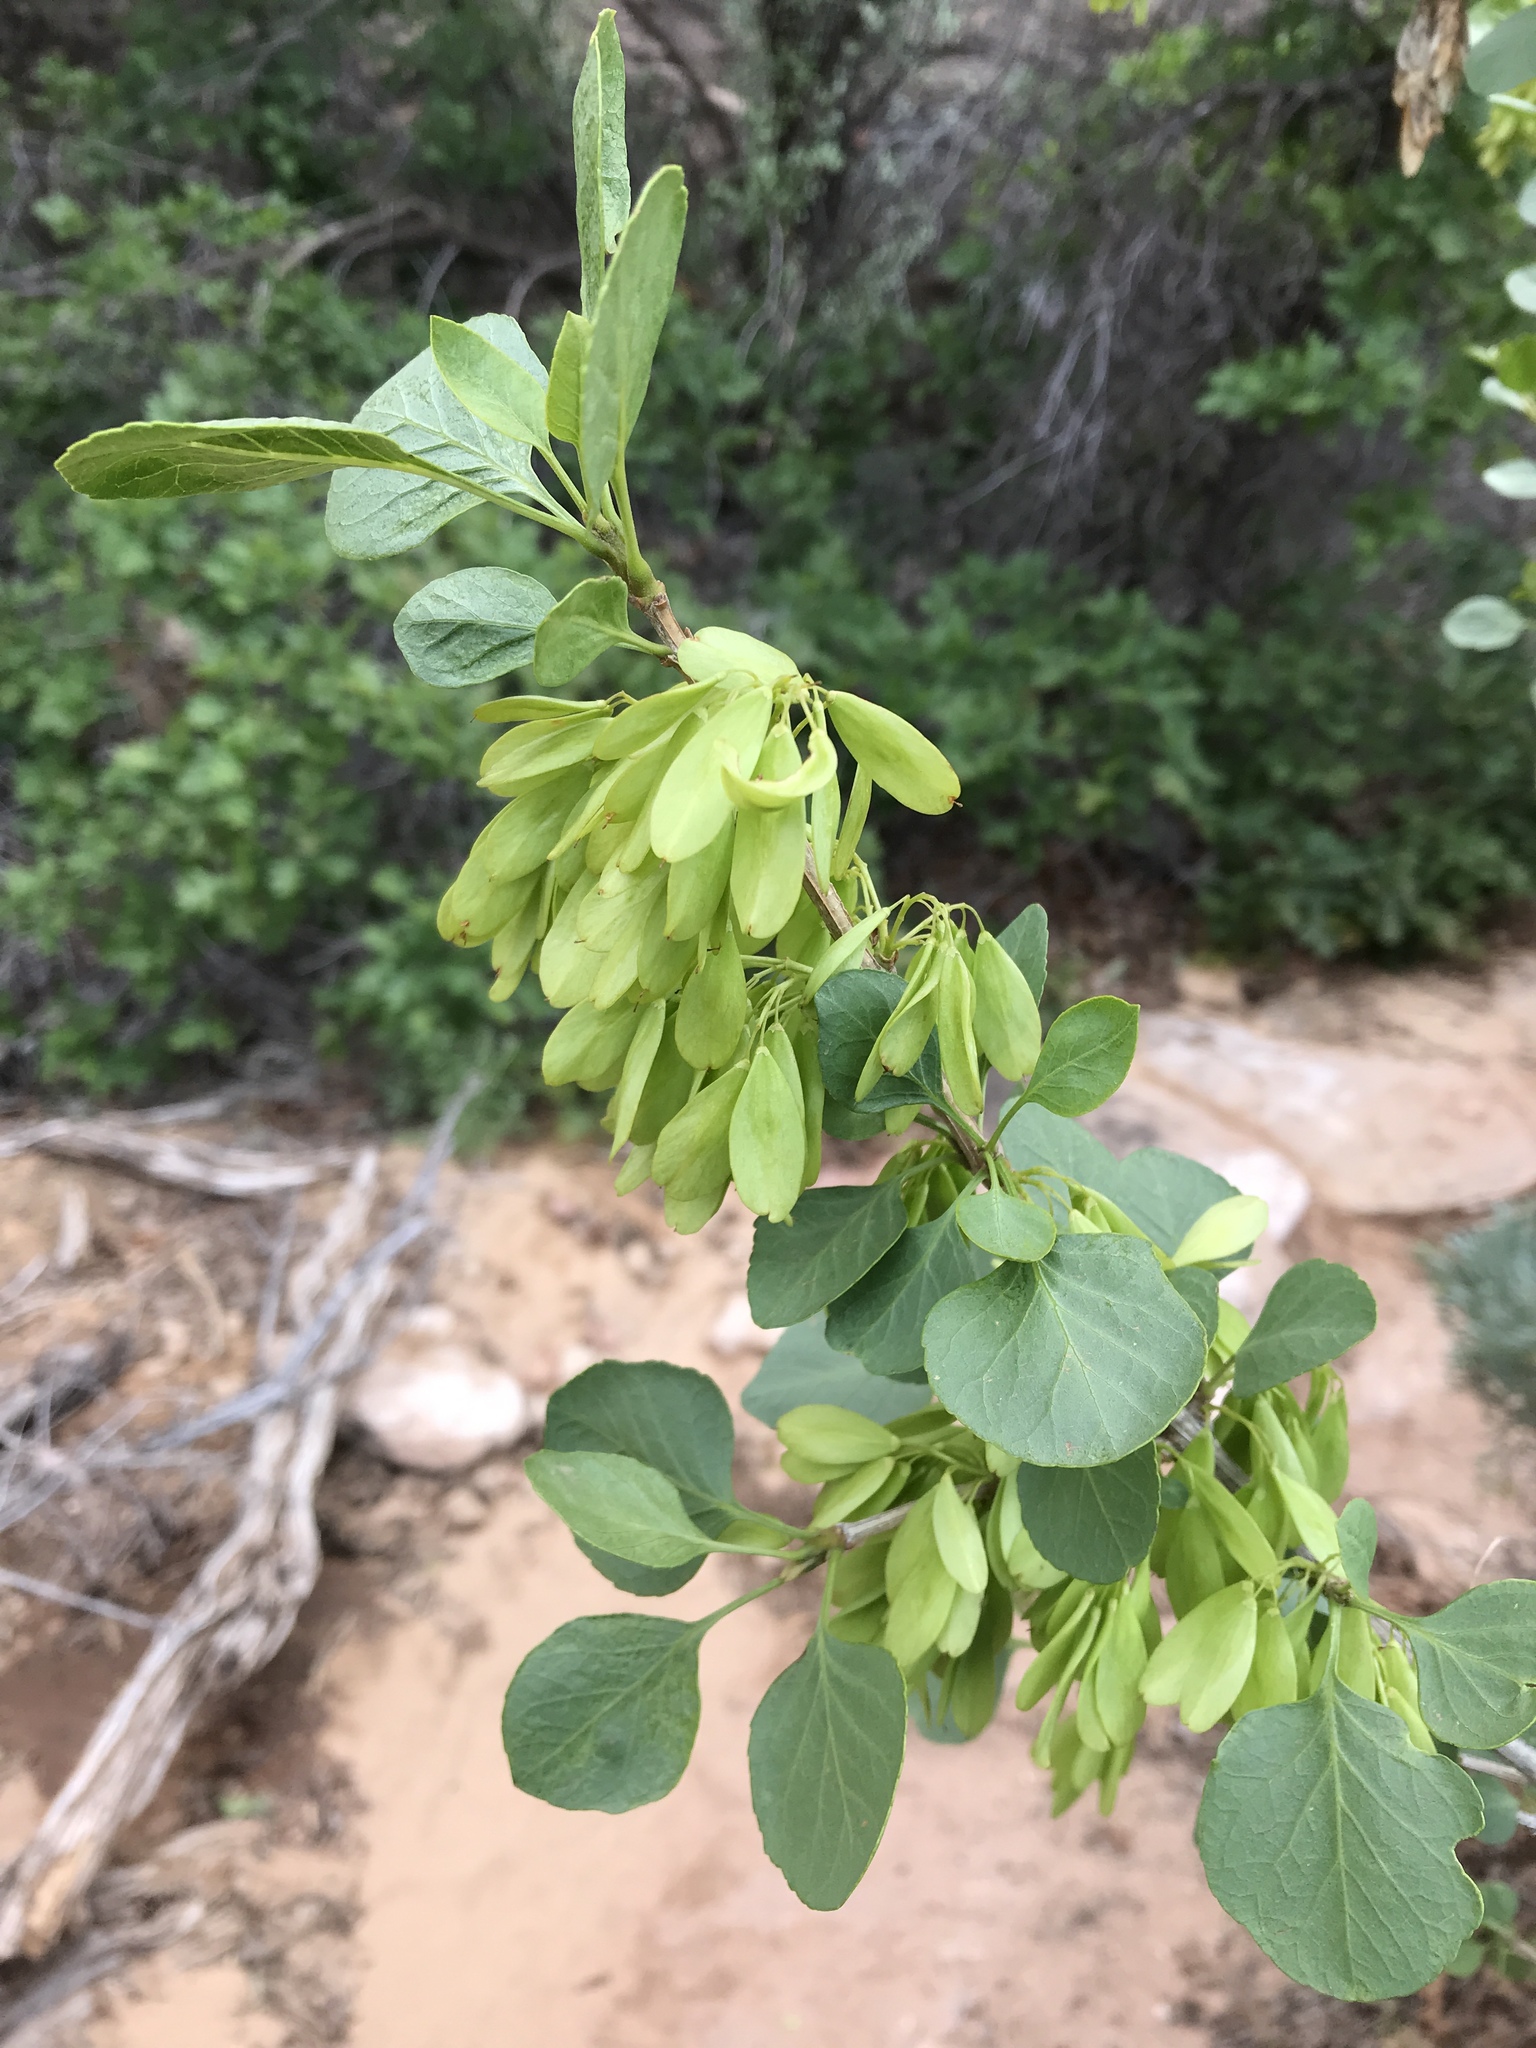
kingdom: Plantae
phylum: Tracheophyta
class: Magnoliopsida
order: Lamiales
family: Oleaceae
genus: Fraxinus
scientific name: Fraxinus anomala
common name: Utah ash
